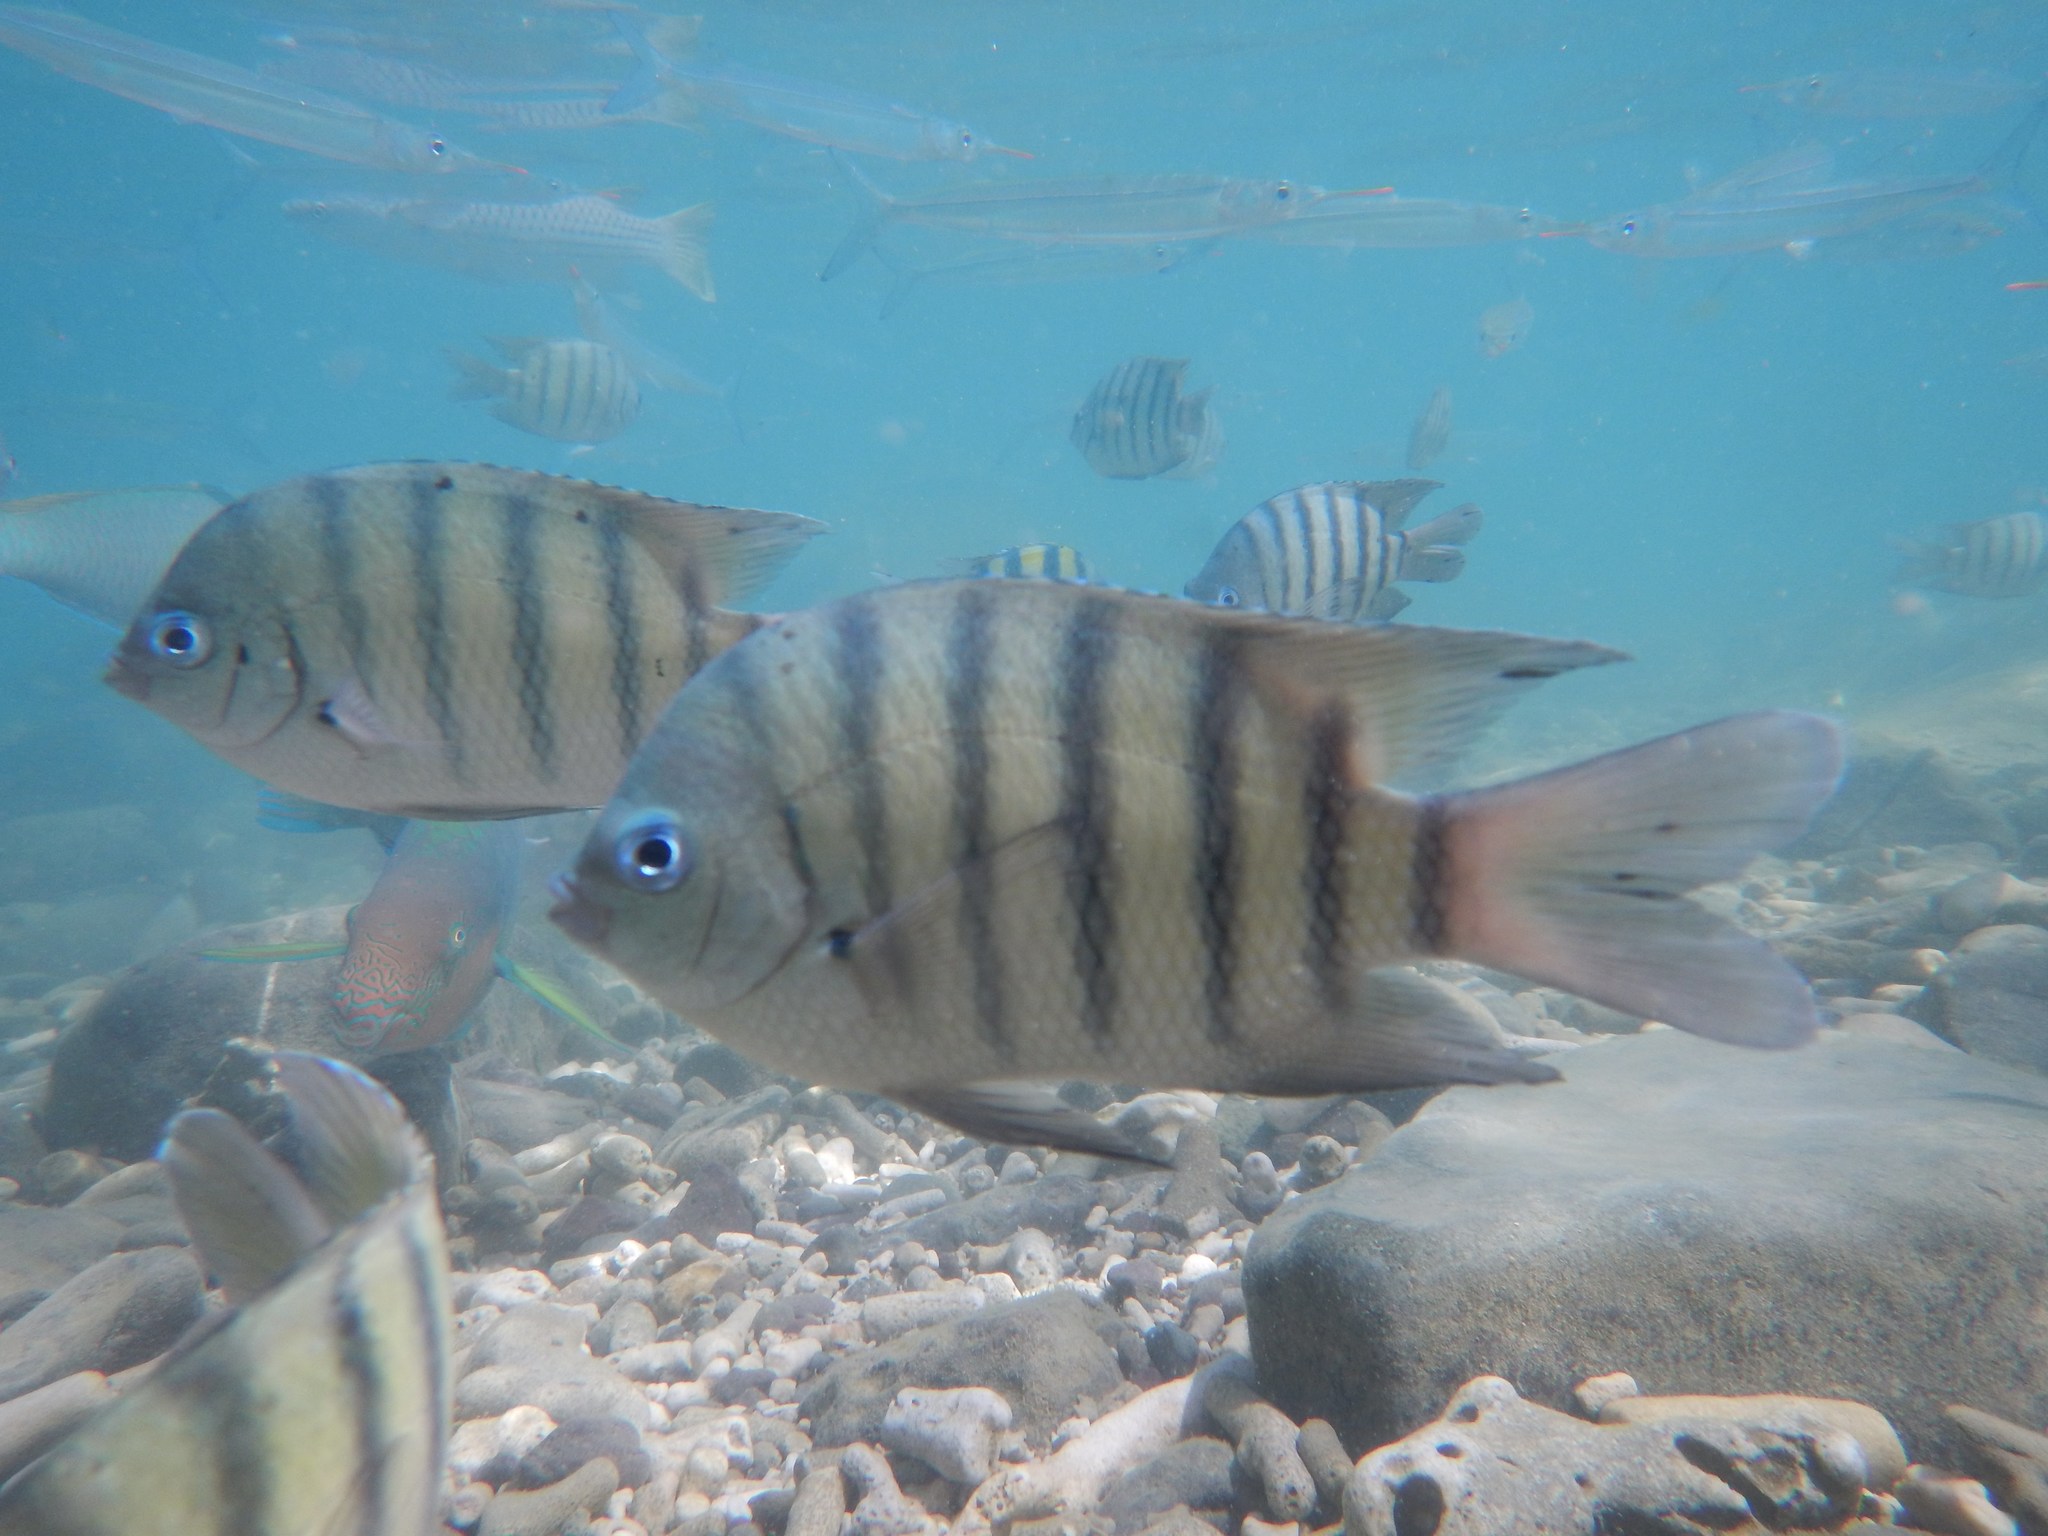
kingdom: Animalia
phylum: Chordata
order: Perciformes
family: Pomacentridae
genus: Abudefduf
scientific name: Abudefduf bengalensis
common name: Bengal sergeant
